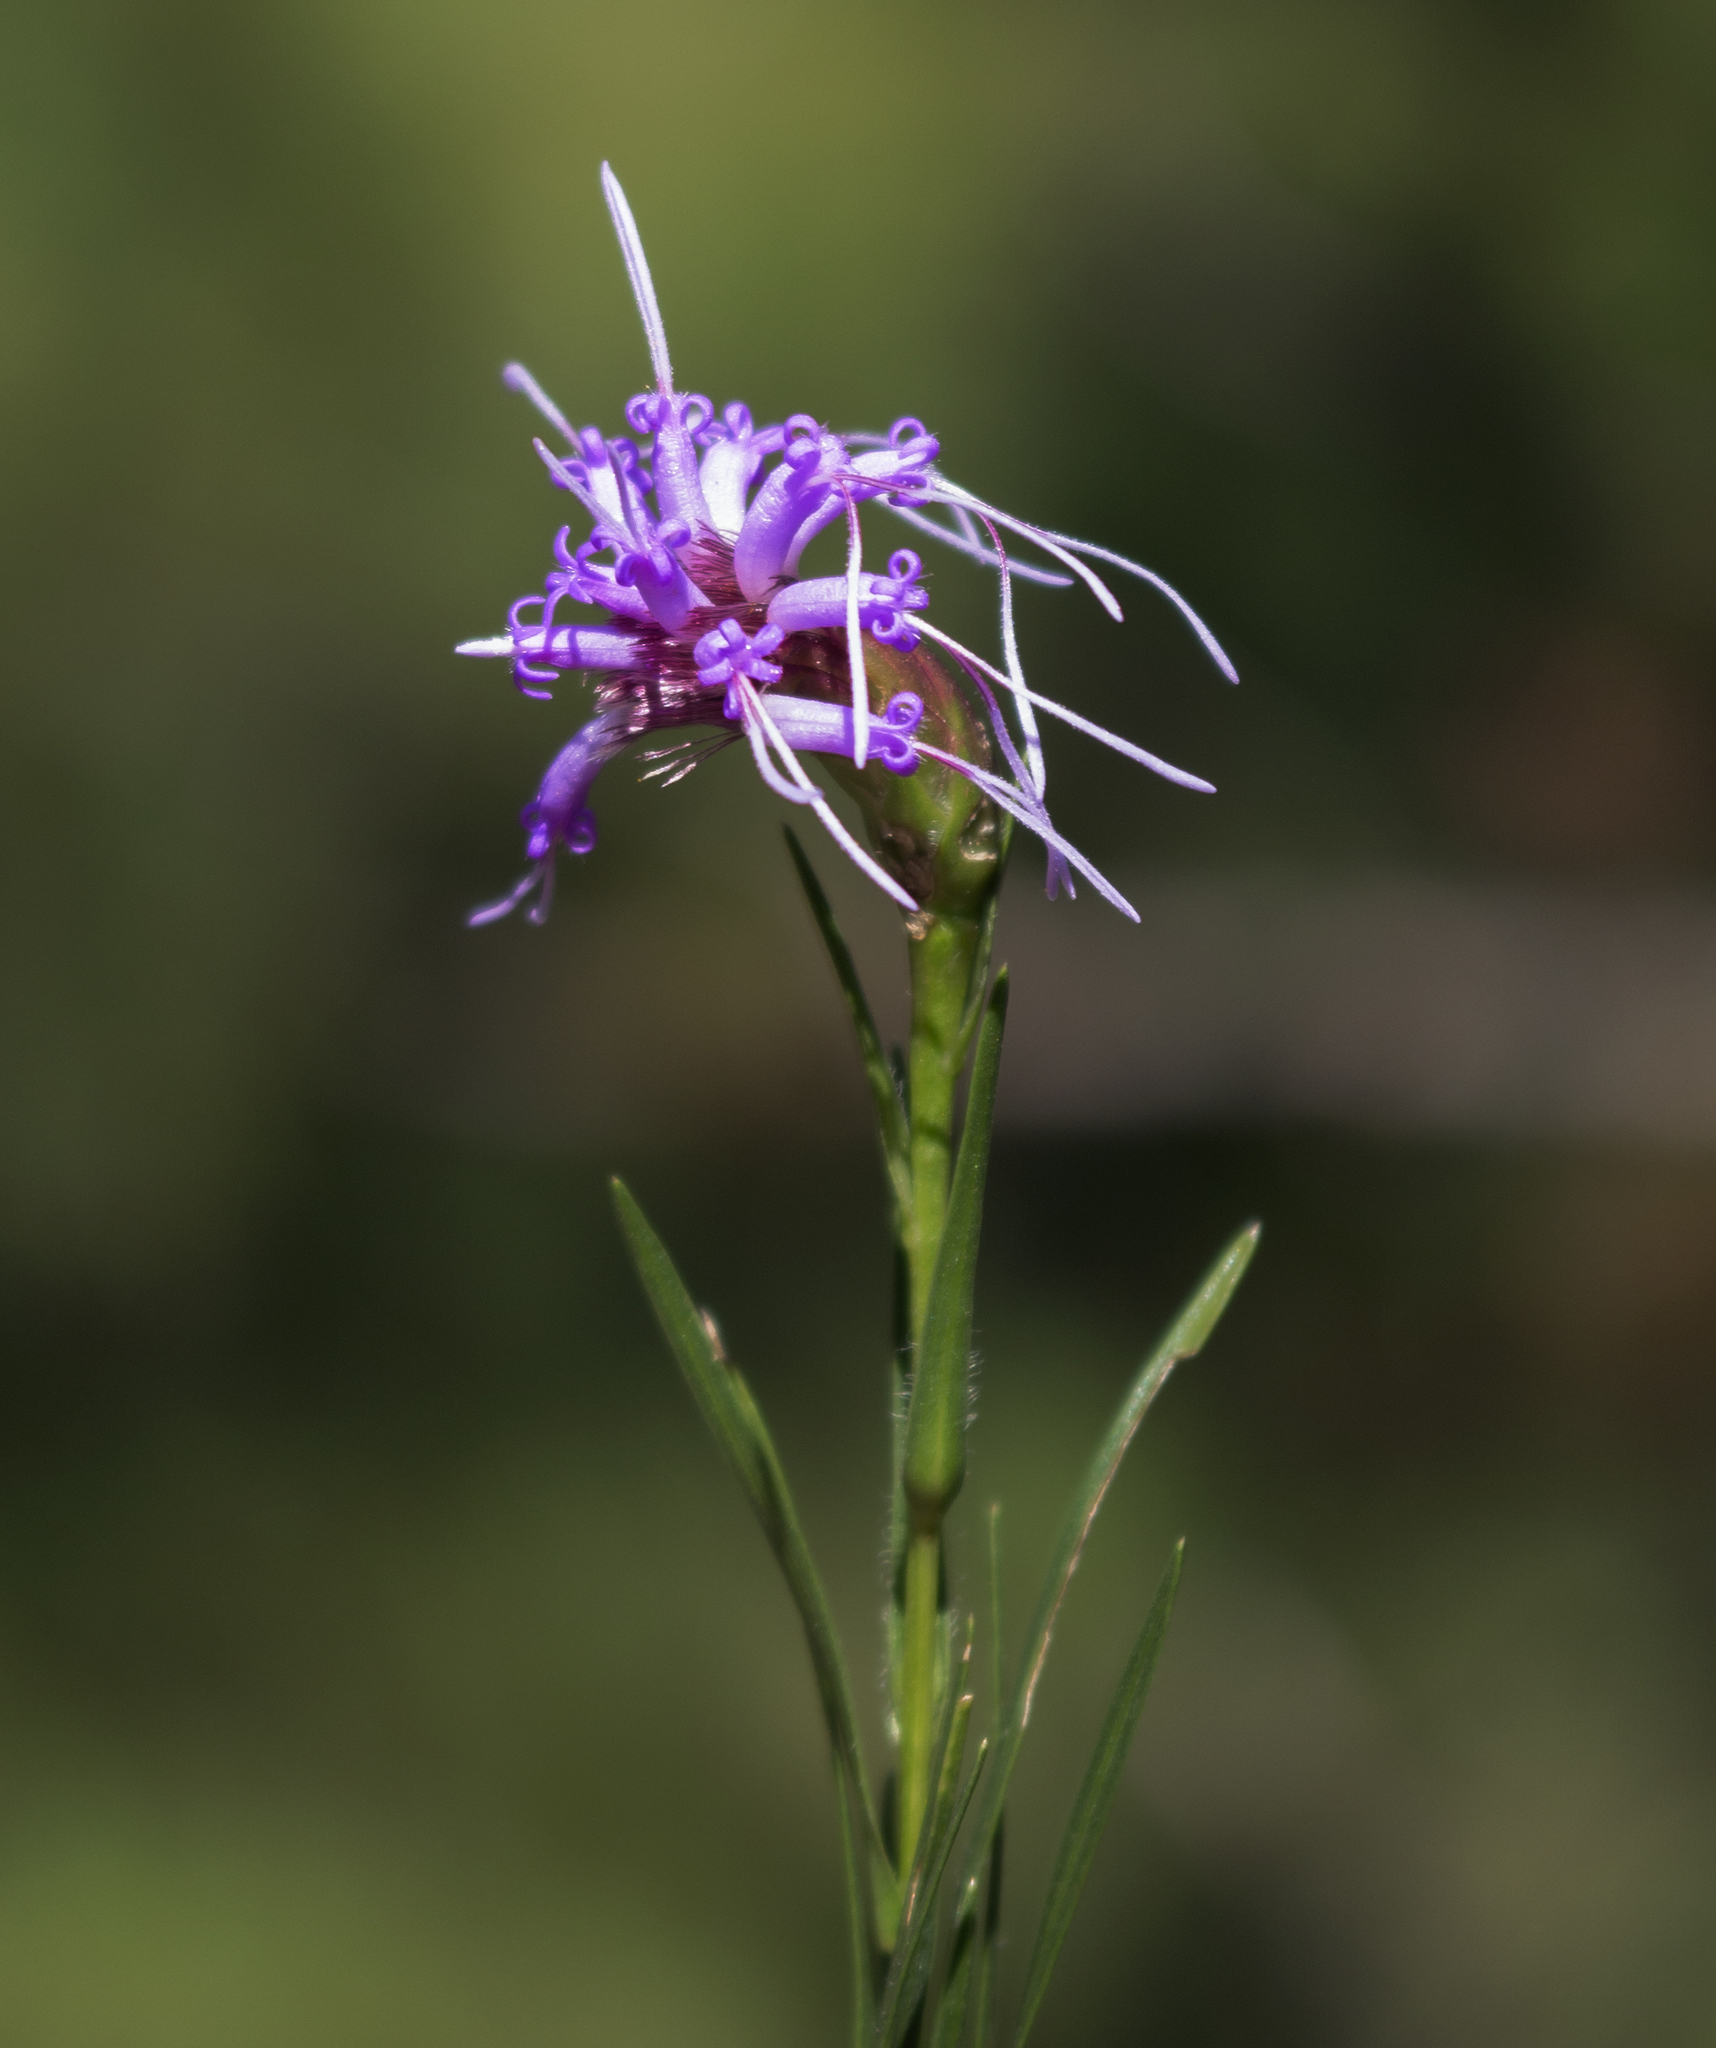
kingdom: Plantae
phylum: Tracheophyta
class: Magnoliopsida
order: Asterales
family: Asteraceae
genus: Liatris
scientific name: Liatris cylindracea
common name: Few-head blazingstar
